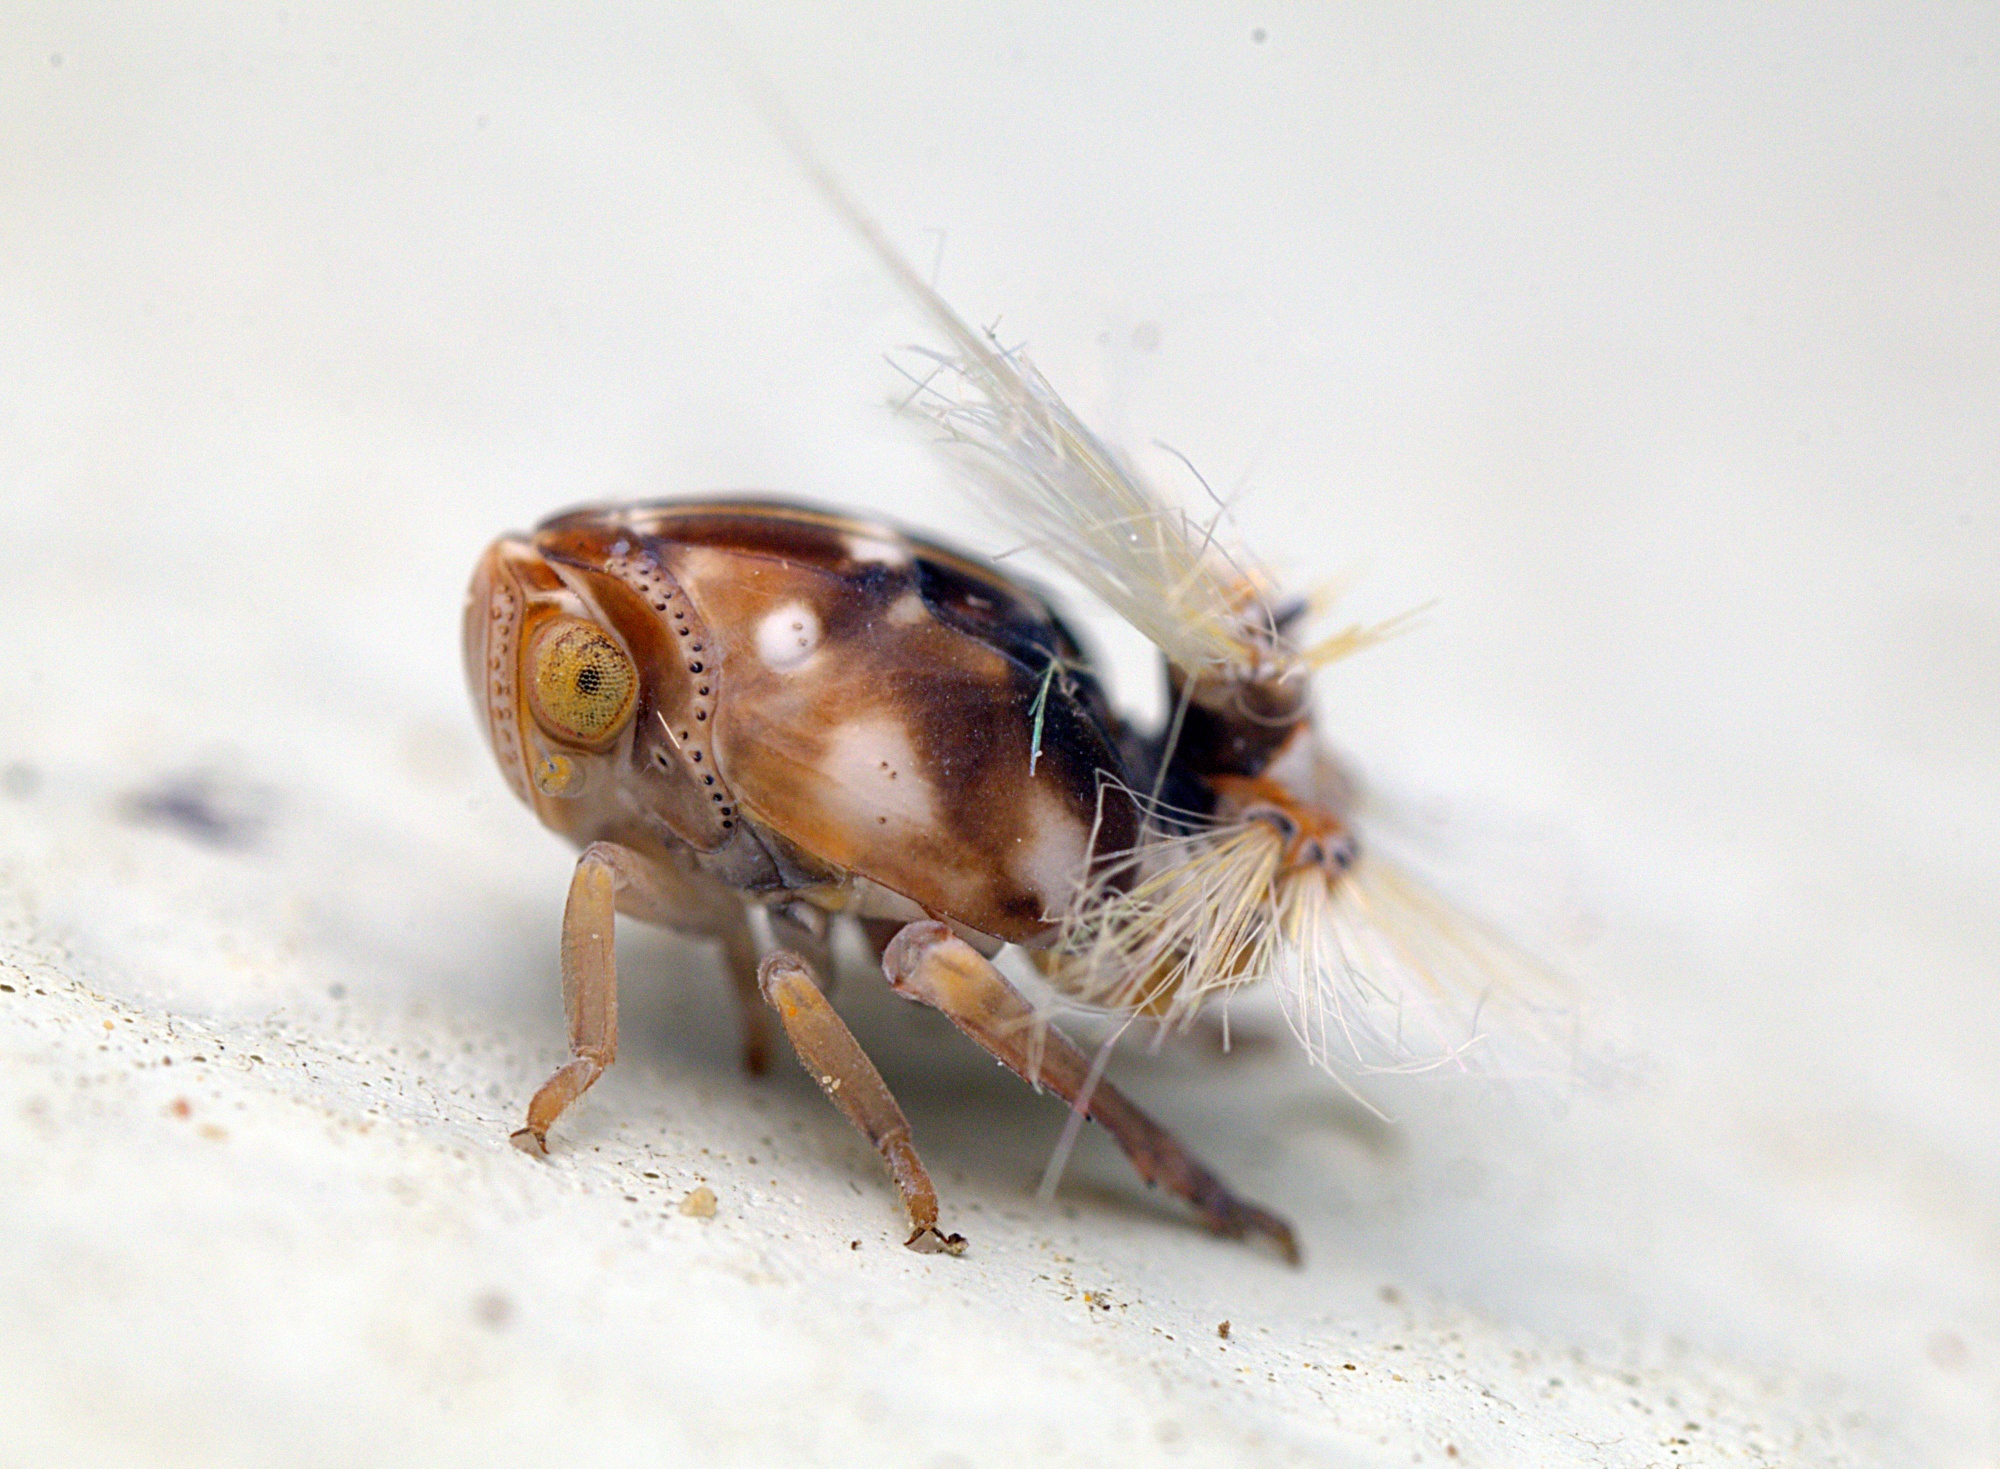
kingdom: Animalia
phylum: Arthropoda
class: Insecta
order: Hemiptera
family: Ricaniidae
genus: Scolypopa
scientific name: Scolypopa australis
